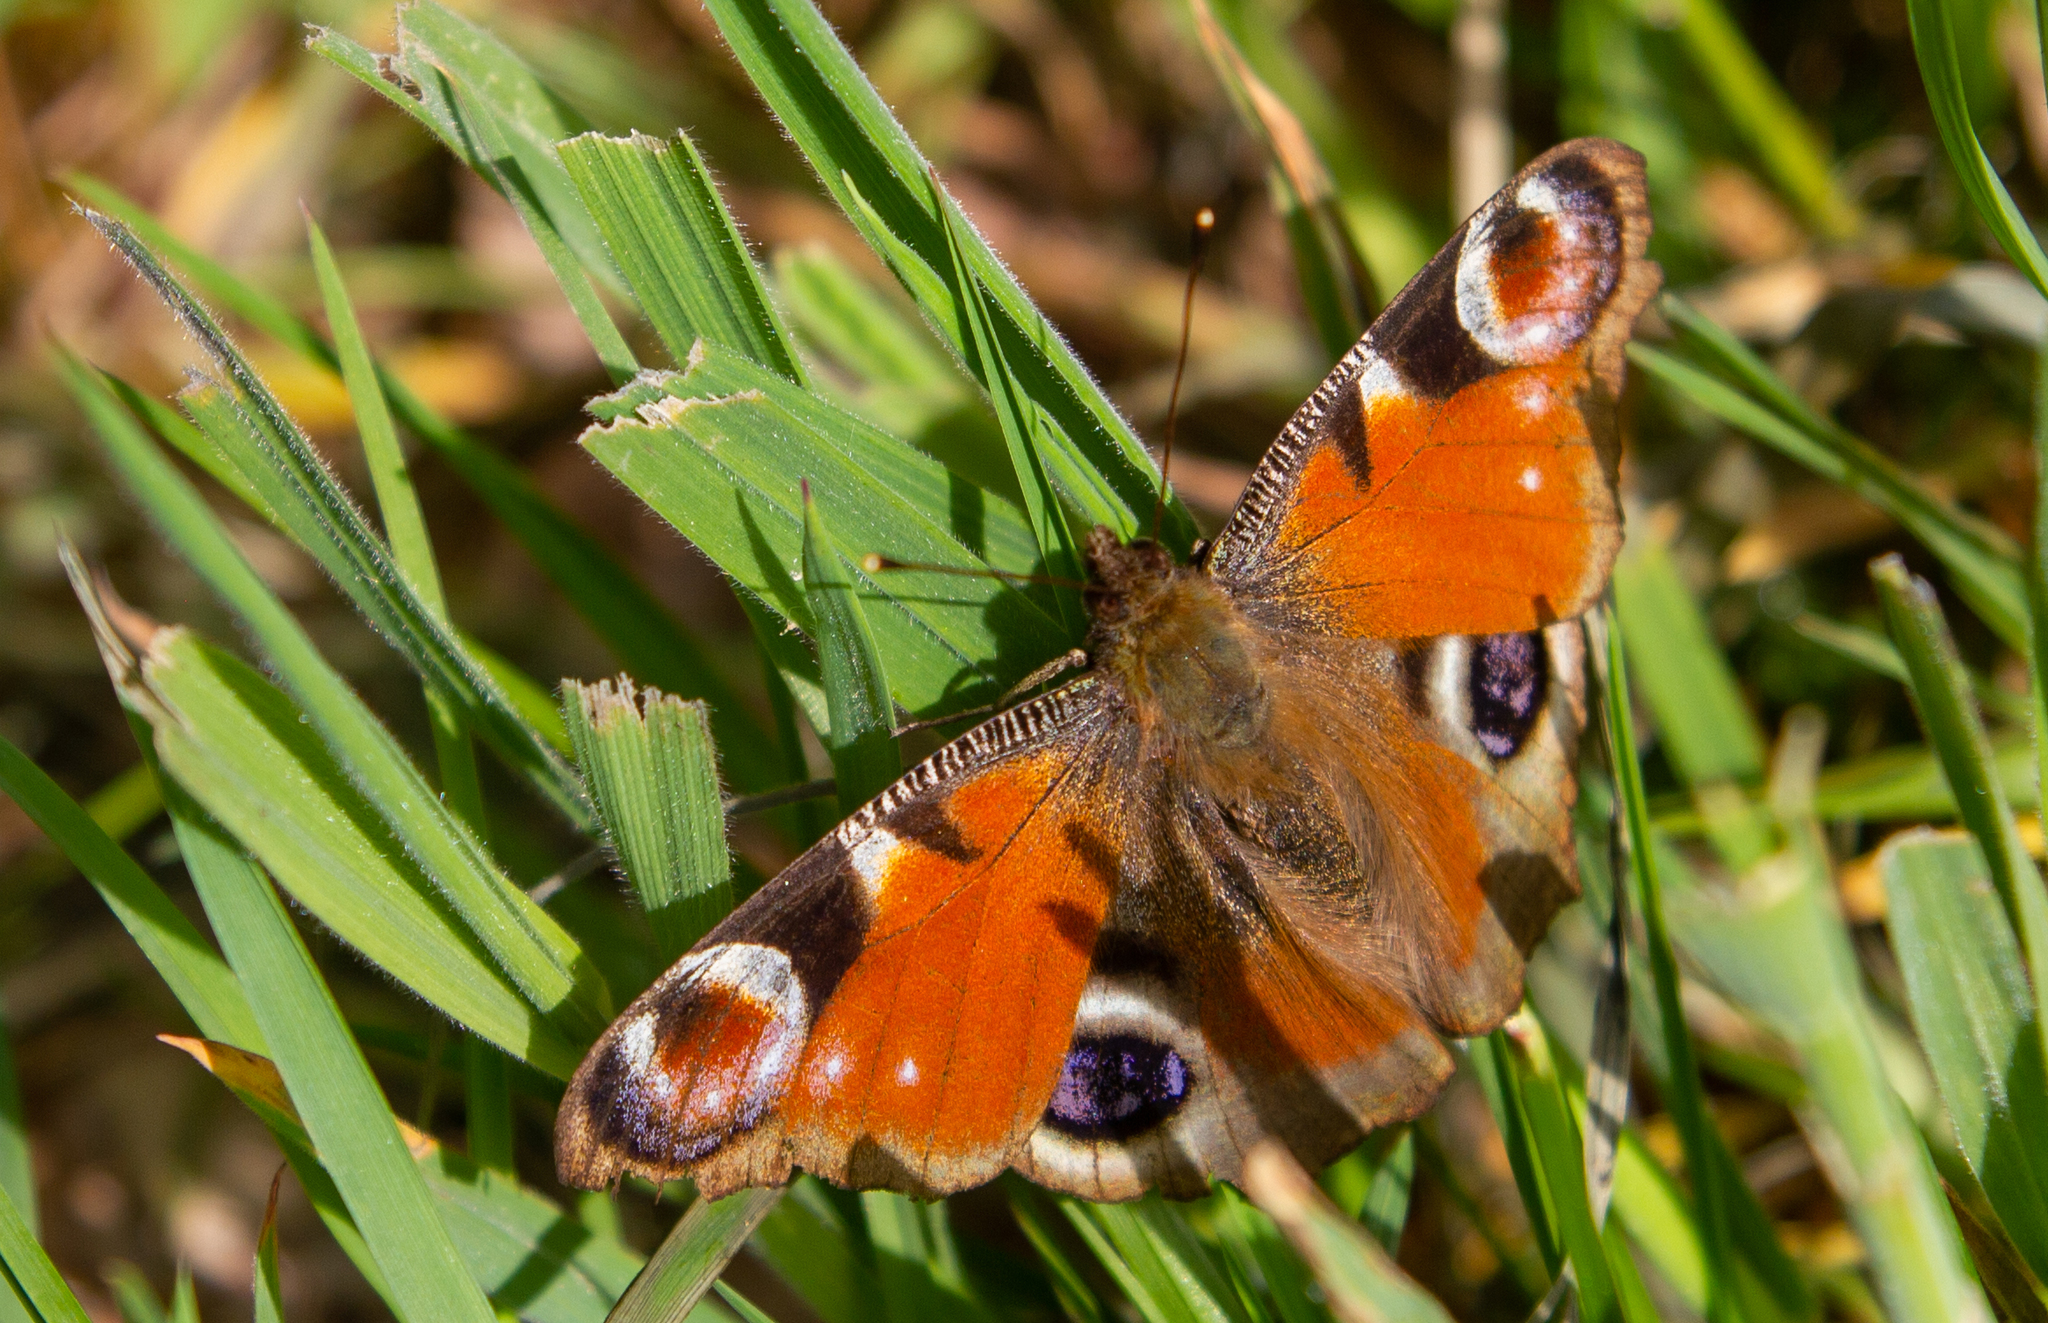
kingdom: Animalia
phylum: Arthropoda
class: Insecta
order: Lepidoptera
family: Nymphalidae
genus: Aglais
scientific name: Aglais io
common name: Peacock
